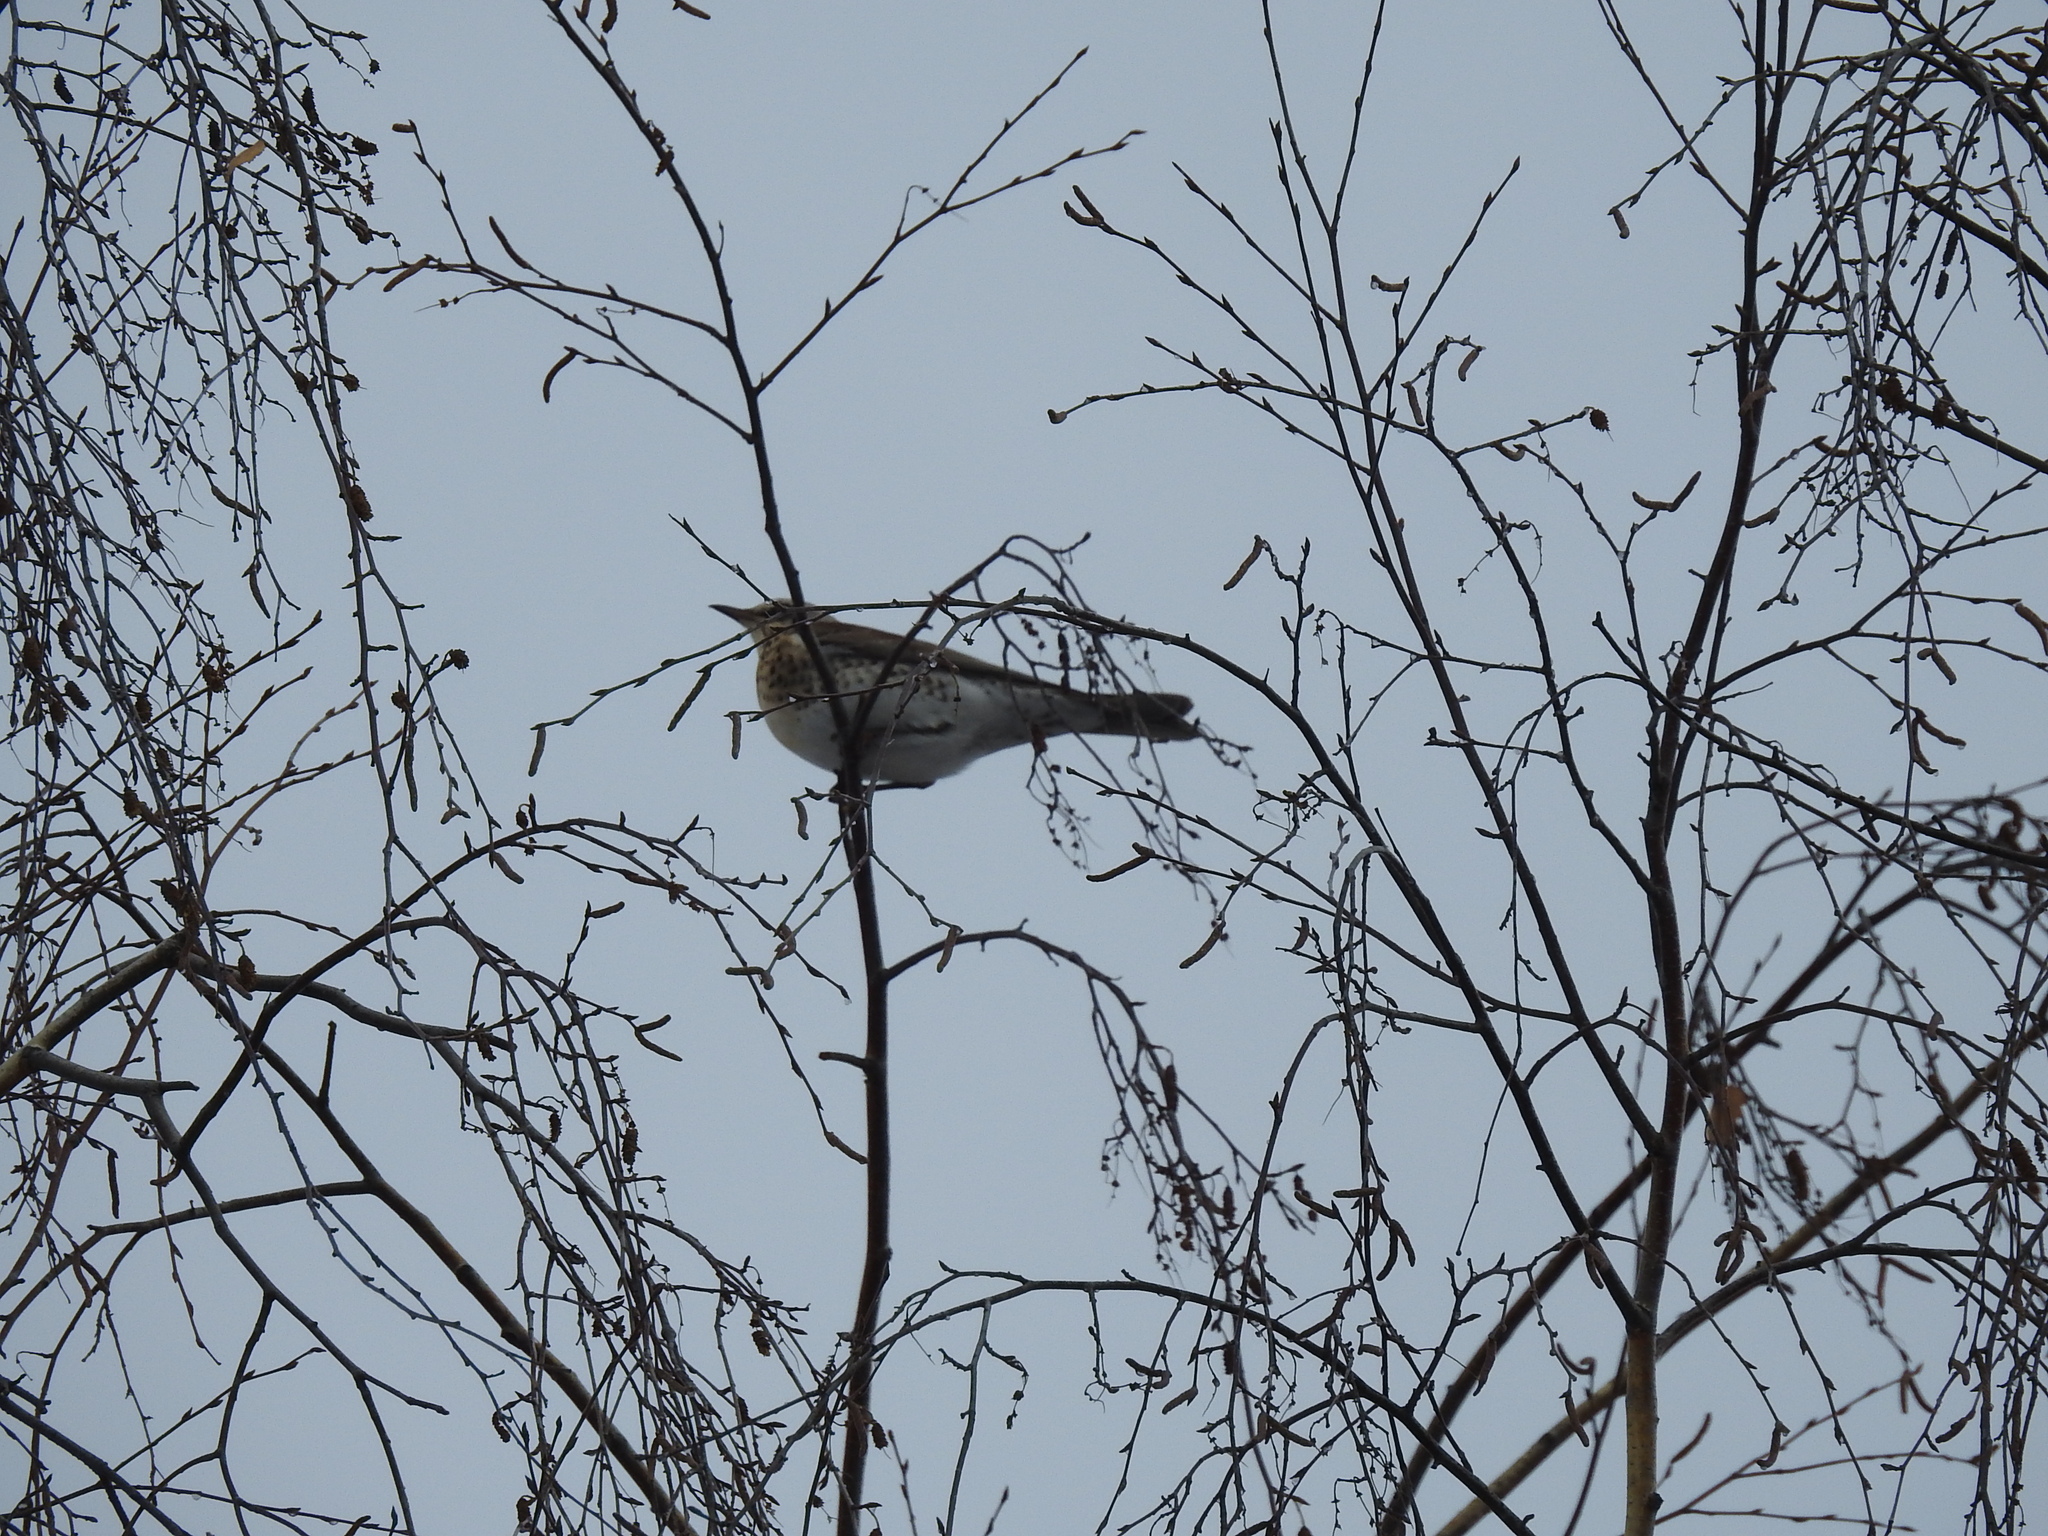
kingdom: Animalia
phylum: Chordata
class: Aves
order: Passeriformes
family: Turdidae
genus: Turdus
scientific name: Turdus pilaris
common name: Fieldfare
